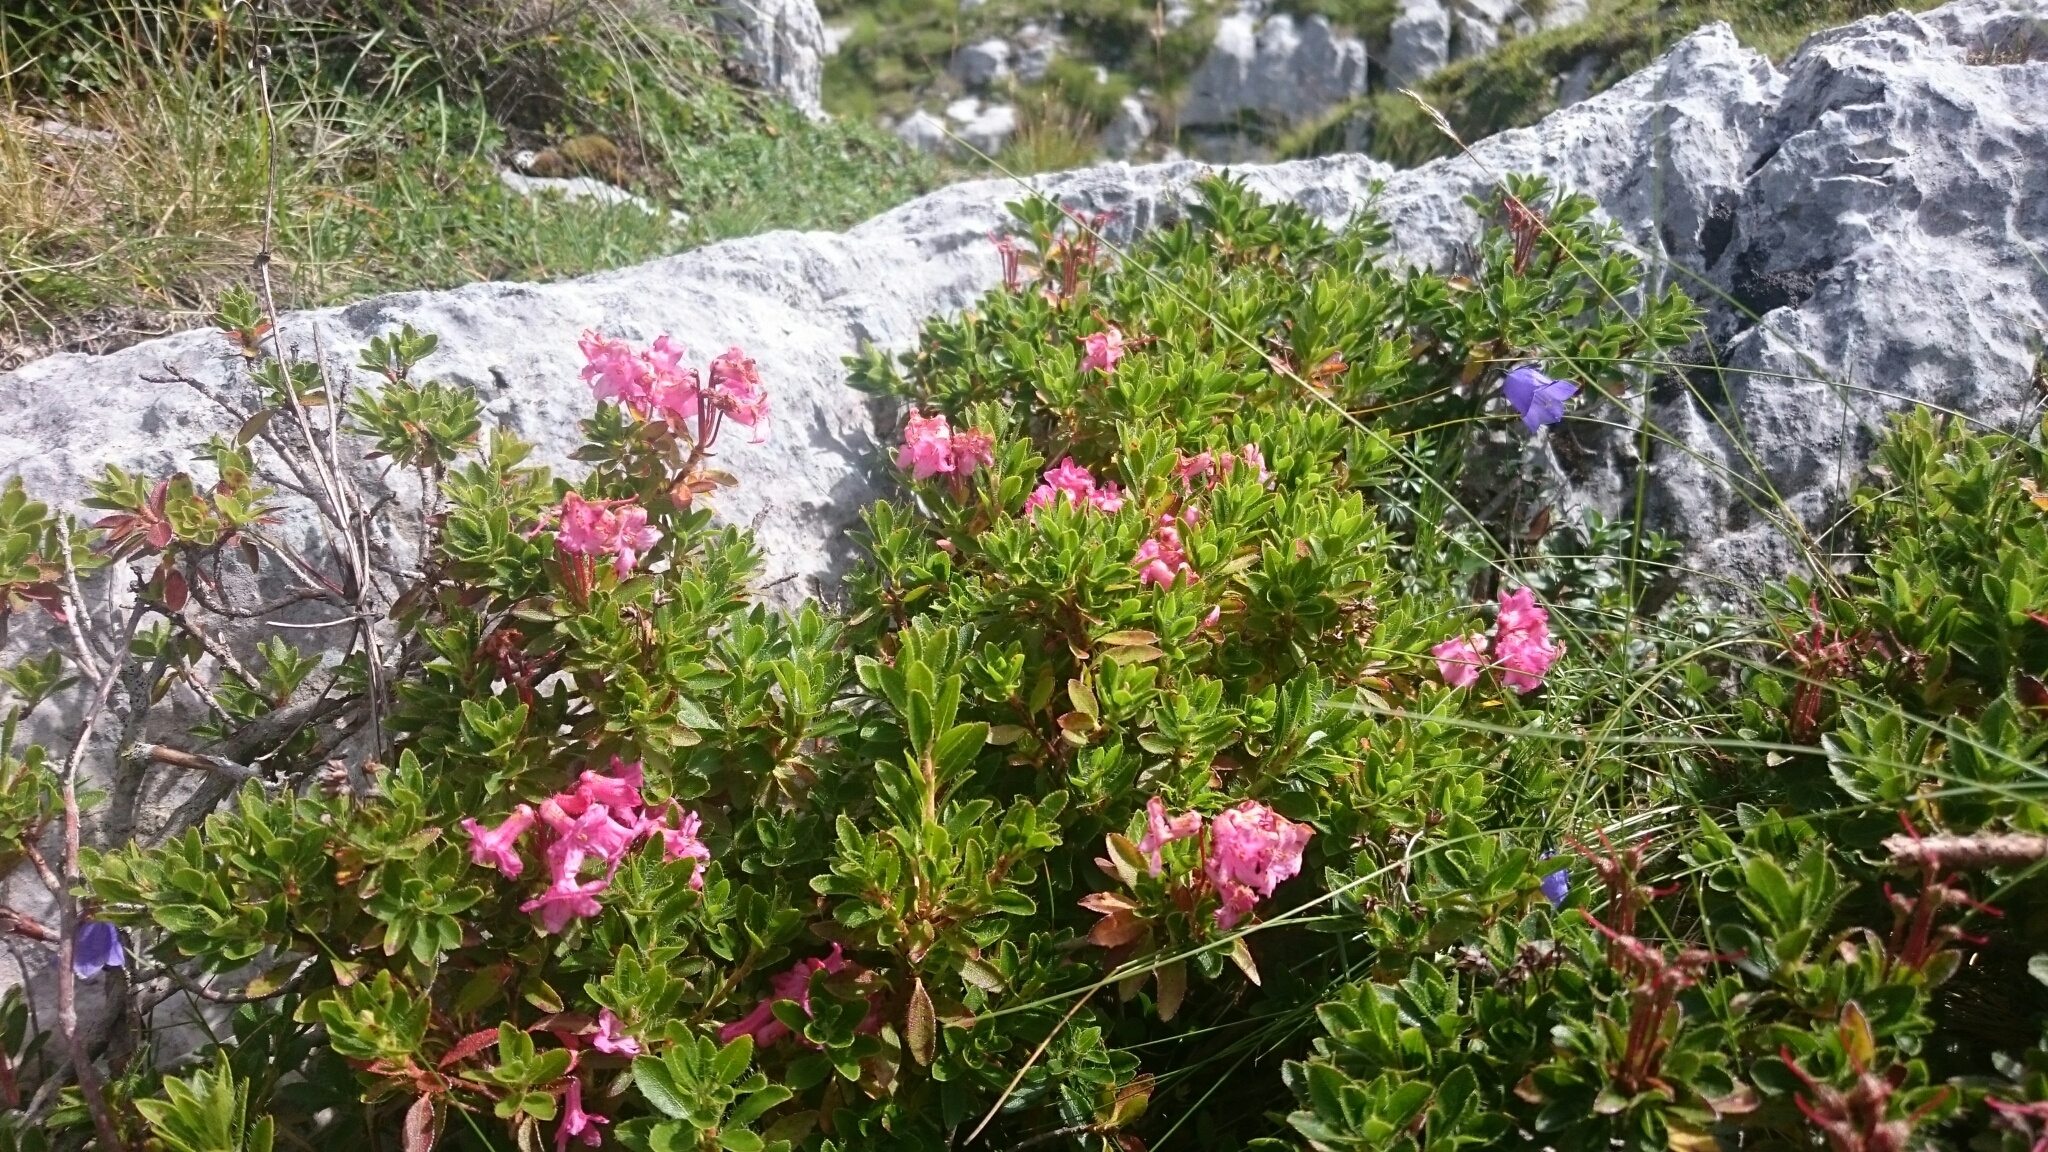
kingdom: Plantae
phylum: Tracheophyta
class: Magnoliopsida
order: Ericales
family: Ericaceae
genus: Rhododendron
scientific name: Rhododendron hirsutum
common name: Hairy alpenrose
